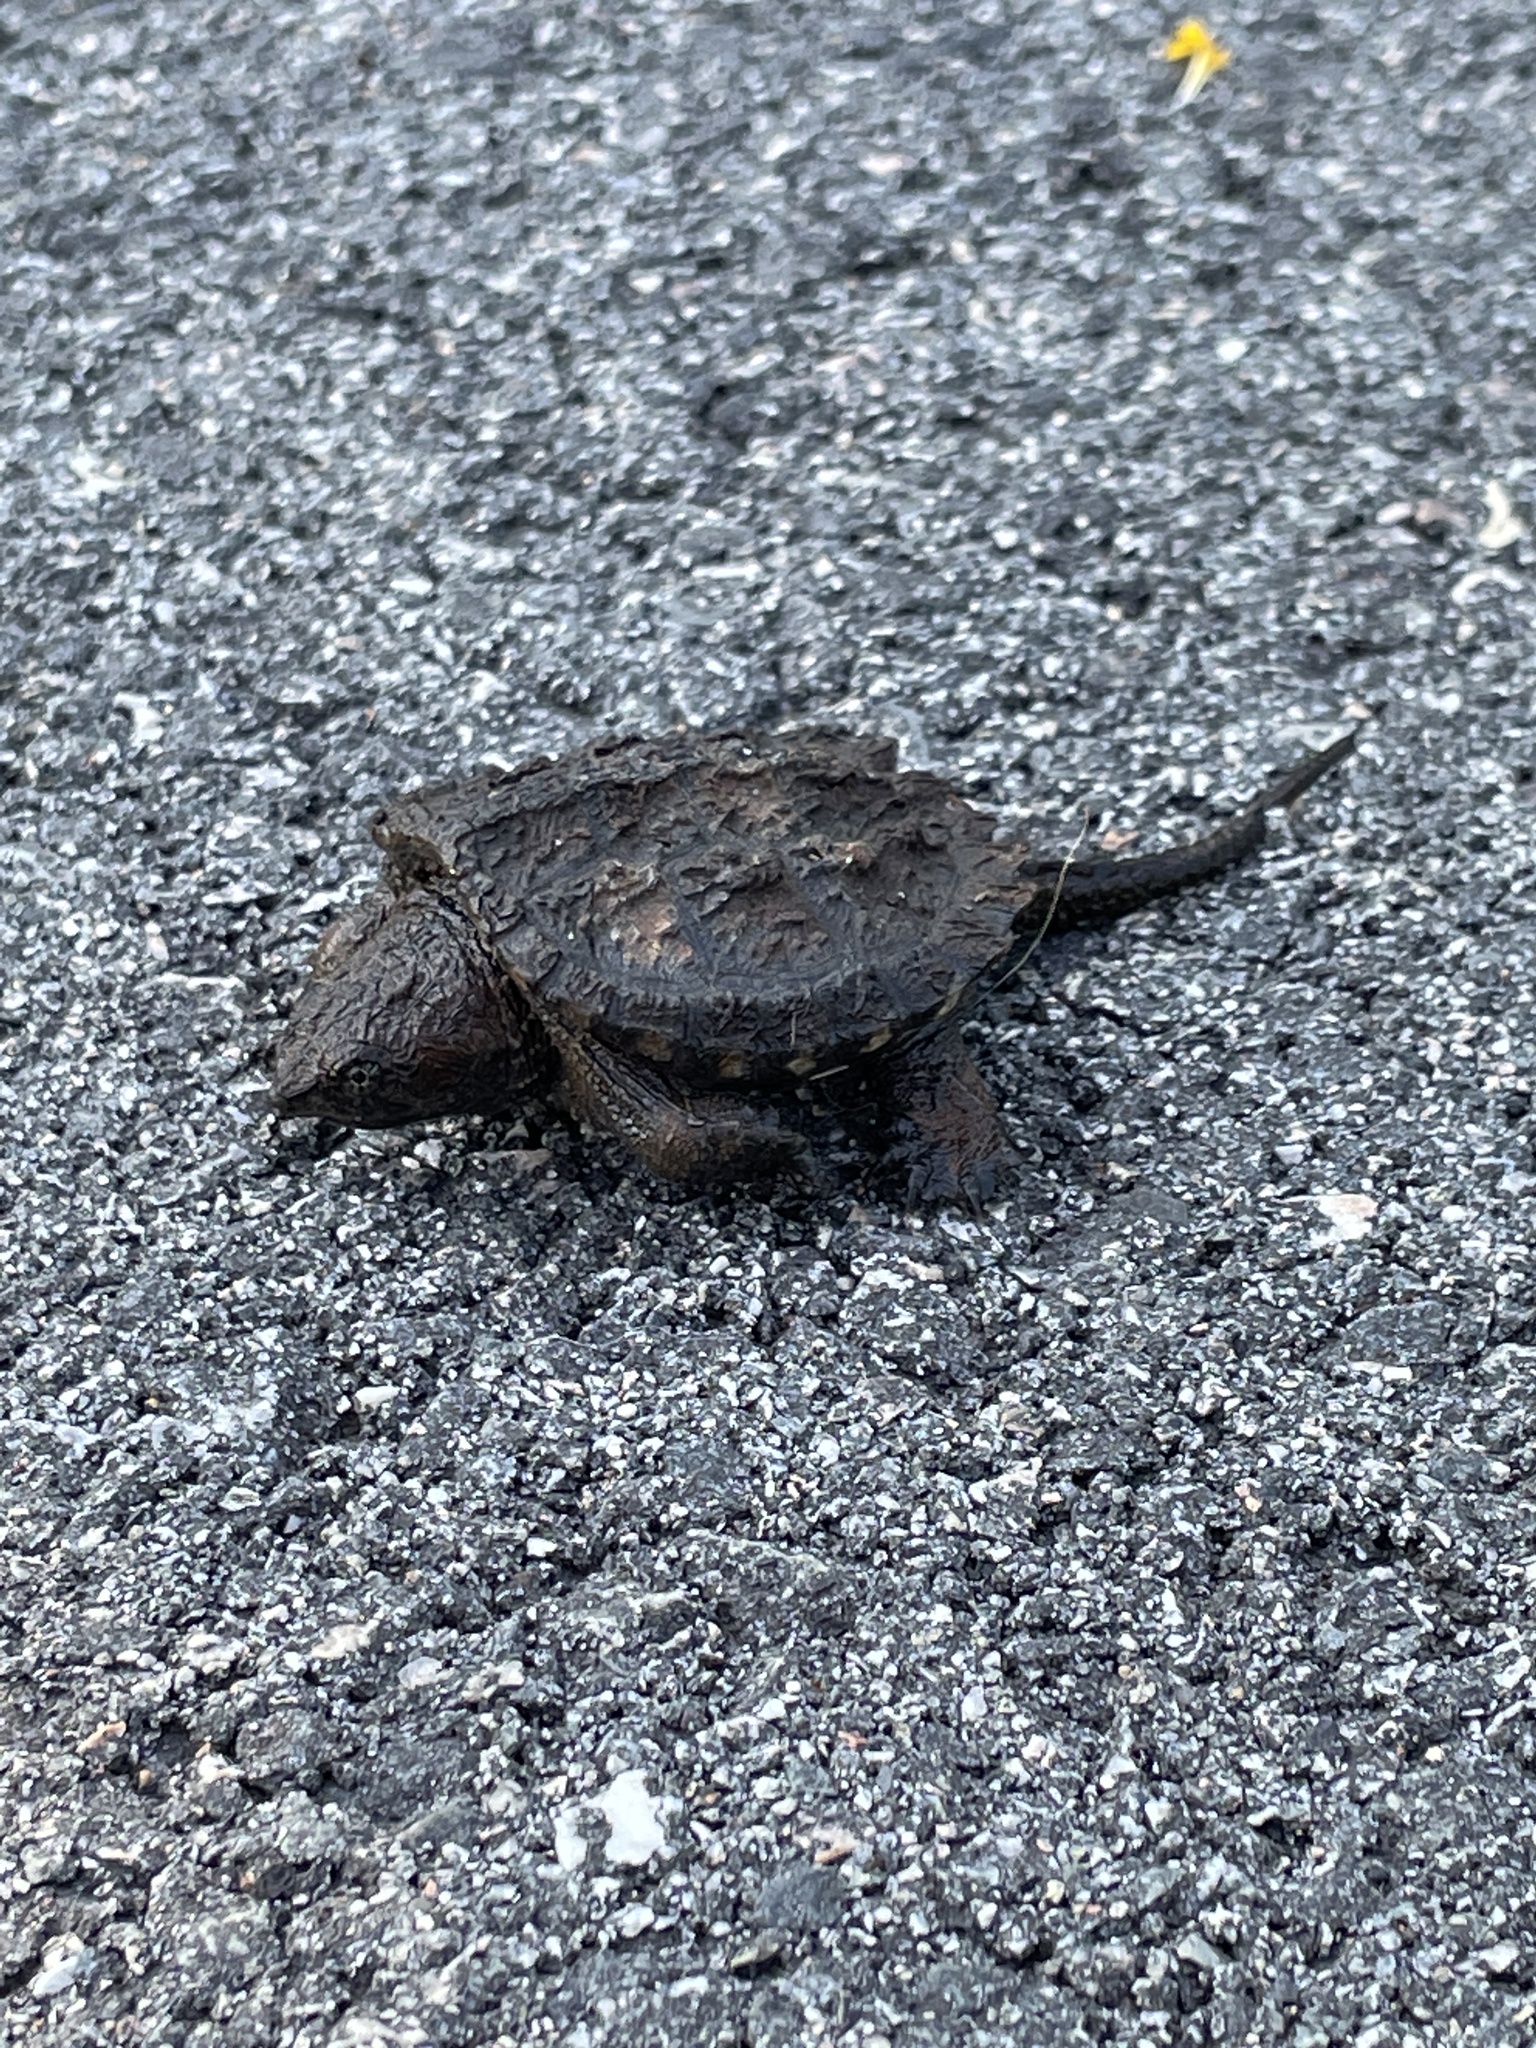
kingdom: Animalia
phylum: Chordata
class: Testudines
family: Chelydridae
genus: Chelydra
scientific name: Chelydra serpentina
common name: Common snapping turtle
